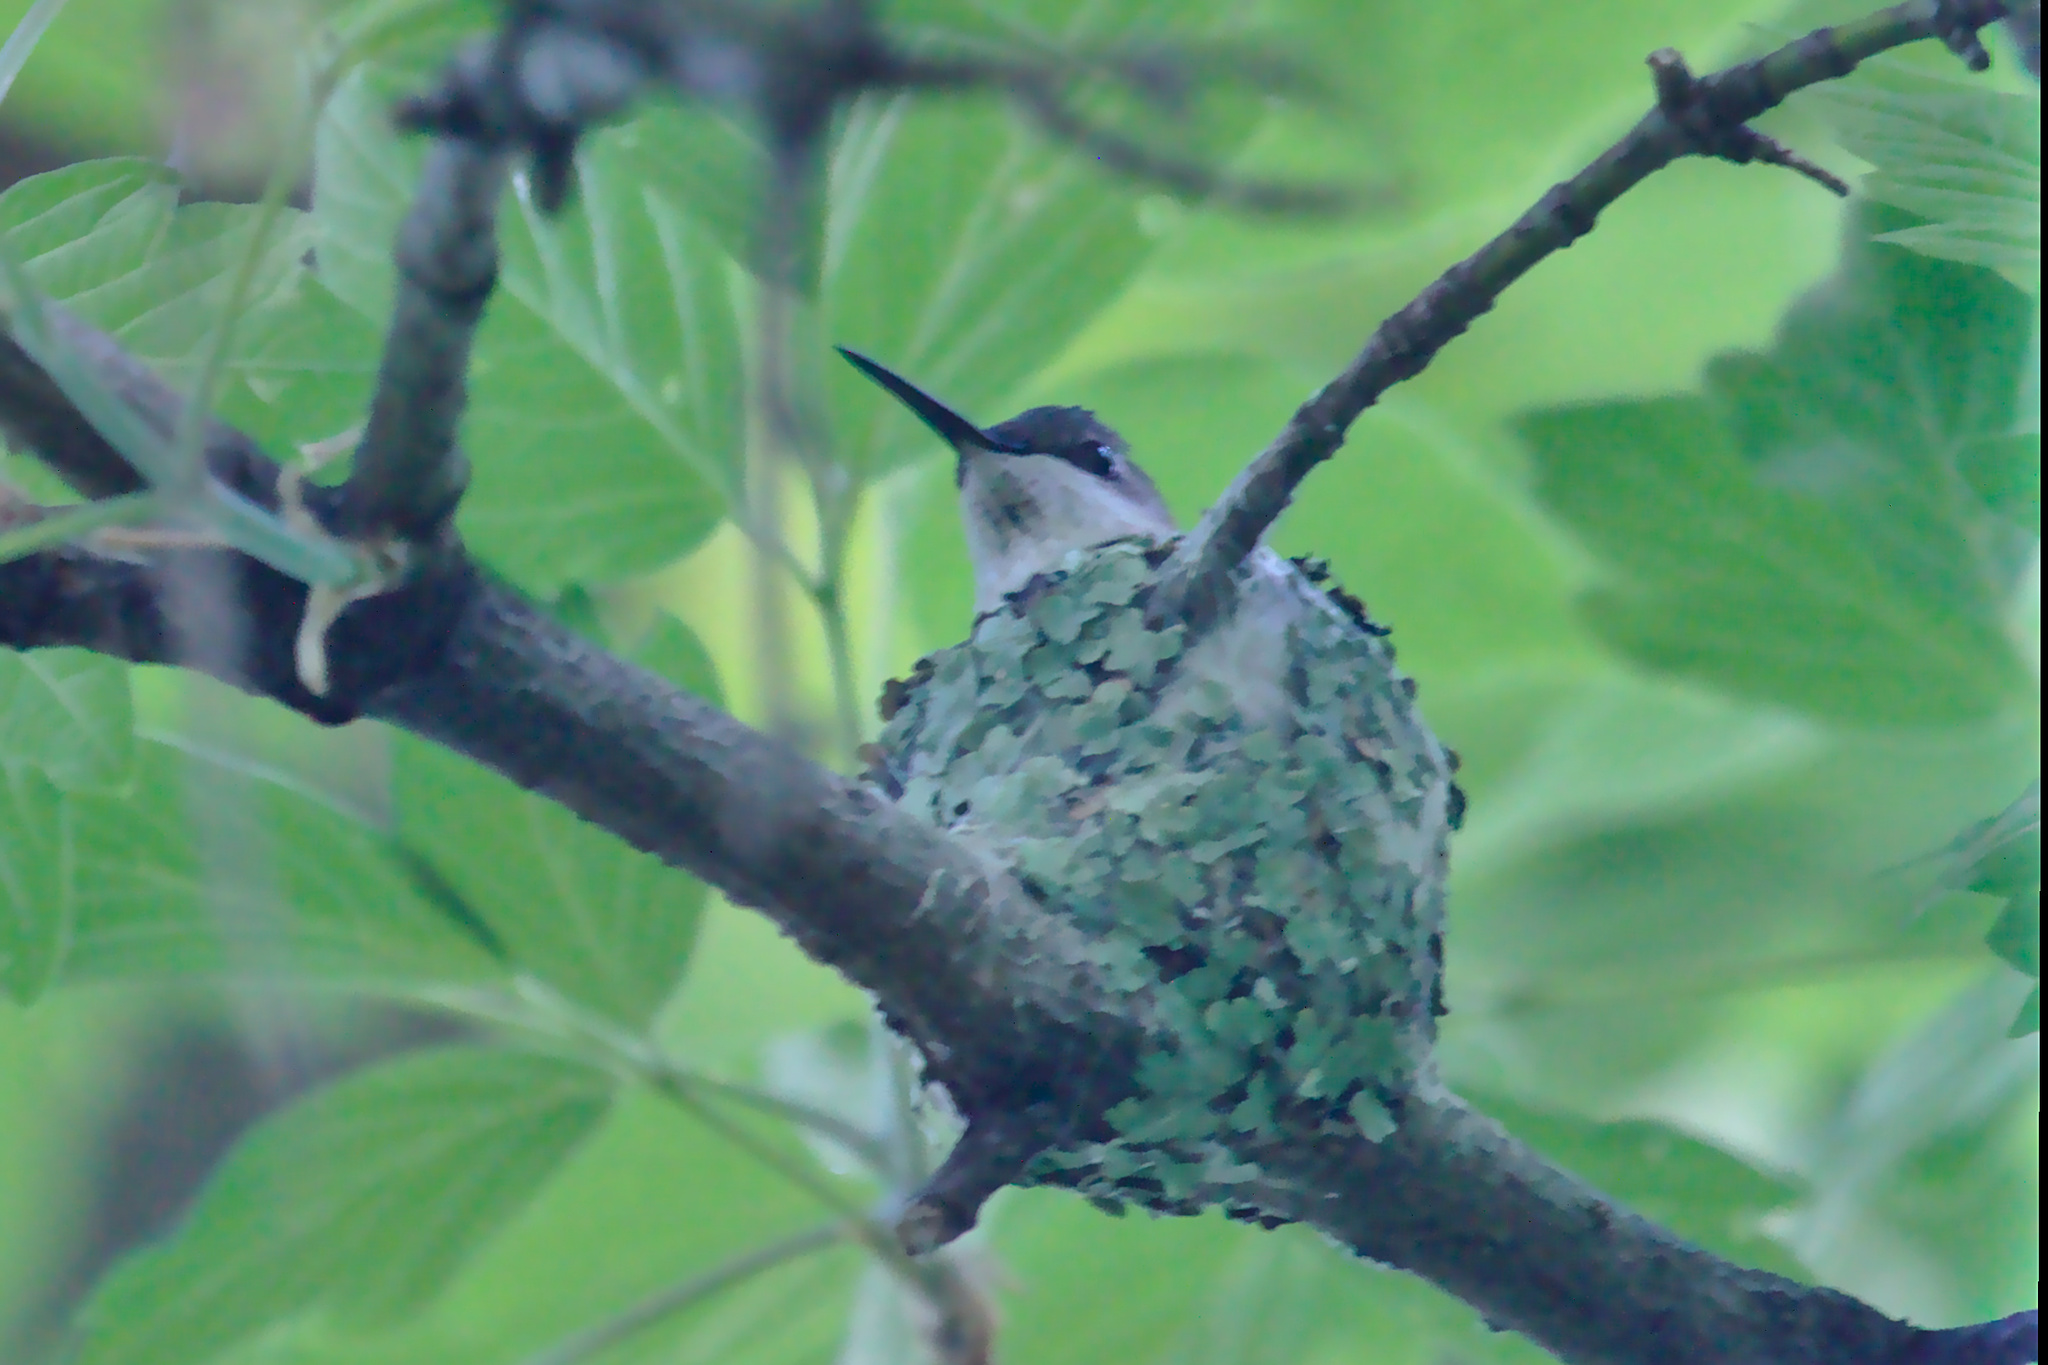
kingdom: Animalia
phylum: Chordata
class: Aves
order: Apodiformes
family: Trochilidae
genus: Archilochus
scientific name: Archilochus colubris
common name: Ruby-throated hummingbird
